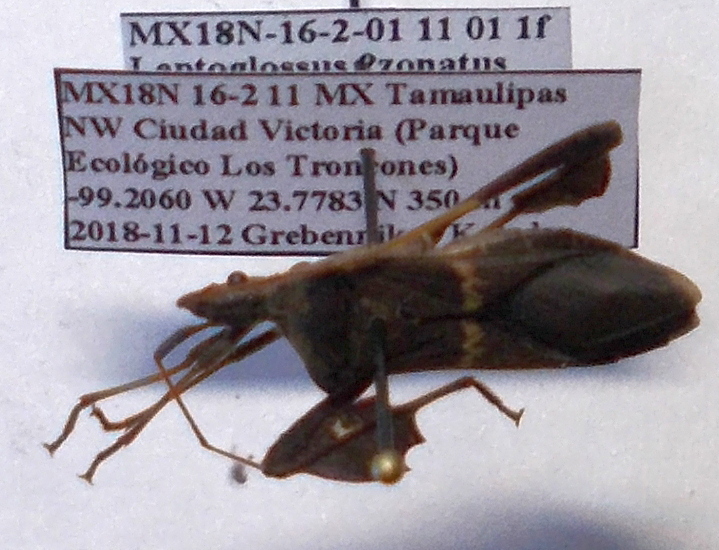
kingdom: Animalia
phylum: Arthropoda
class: Insecta
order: Hemiptera
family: Coreidae
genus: Leptoglossus
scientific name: Leptoglossus zonatus
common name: Large-legged bug
